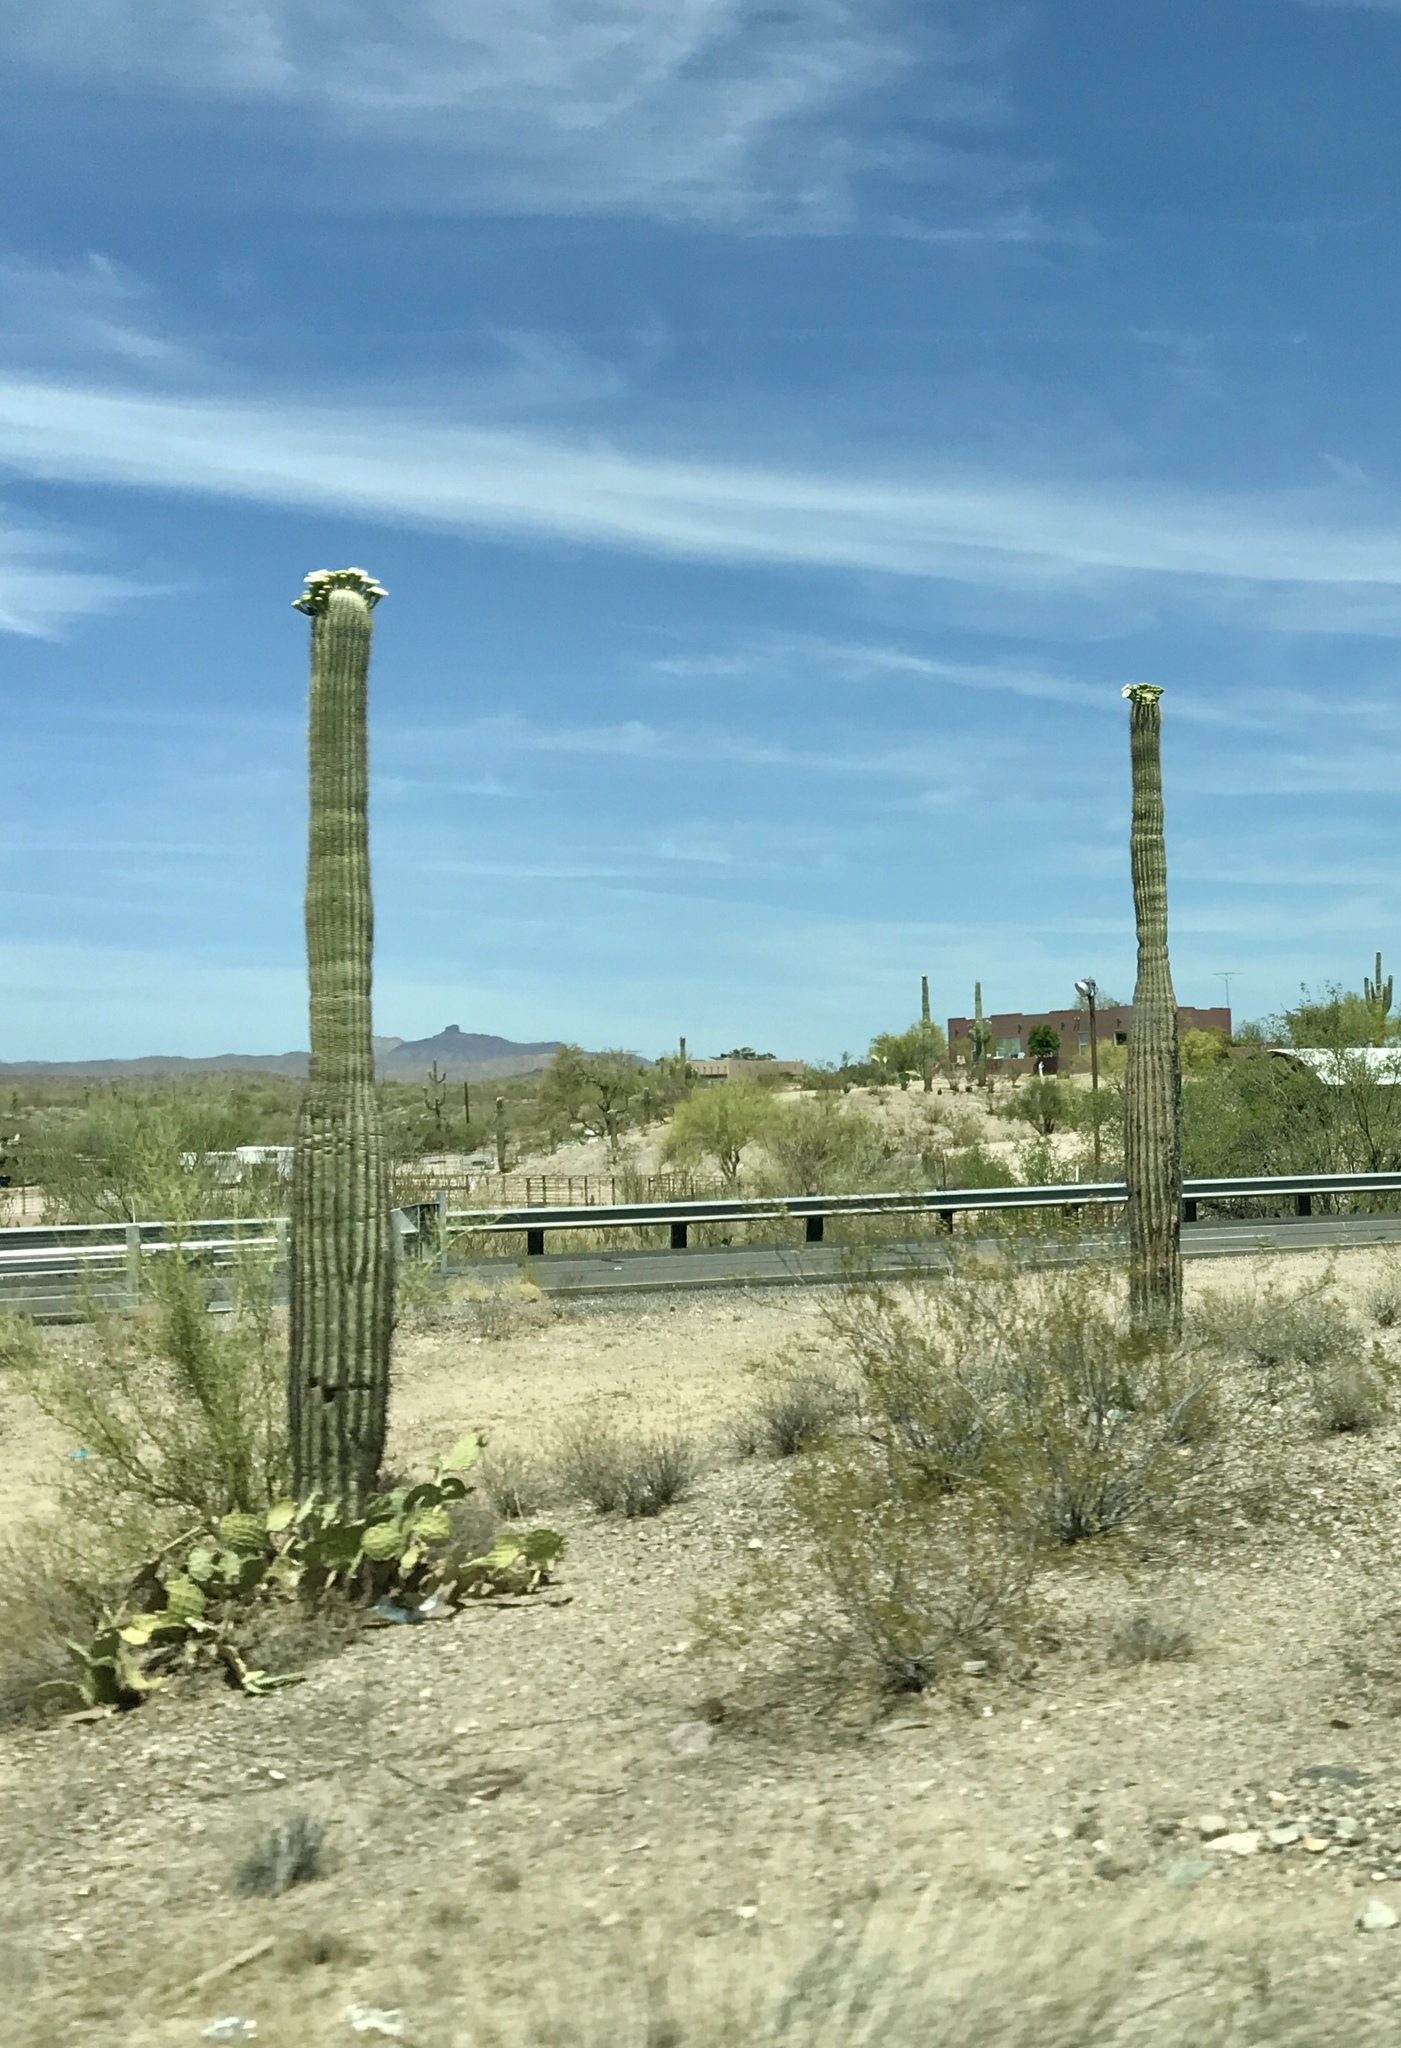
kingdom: Plantae
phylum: Tracheophyta
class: Magnoliopsida
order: Caryophyllales
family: Cactaceae
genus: Carnegiea
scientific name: Carnegiea gigantea
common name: Saguaro
